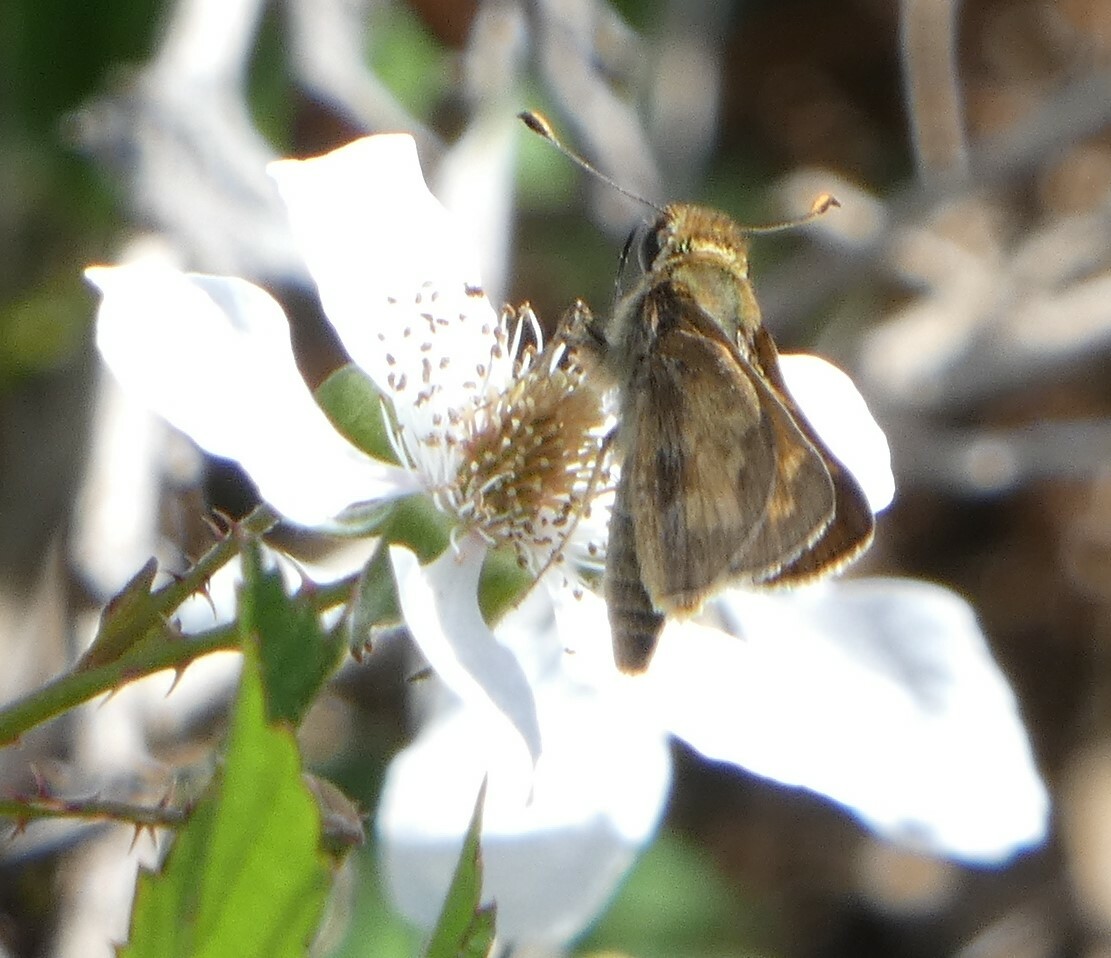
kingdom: Animalia
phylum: Arthropoda
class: Insecta
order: Lepidoptera
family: Hesperiidae
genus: Atalopedes
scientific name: Atalopedes
